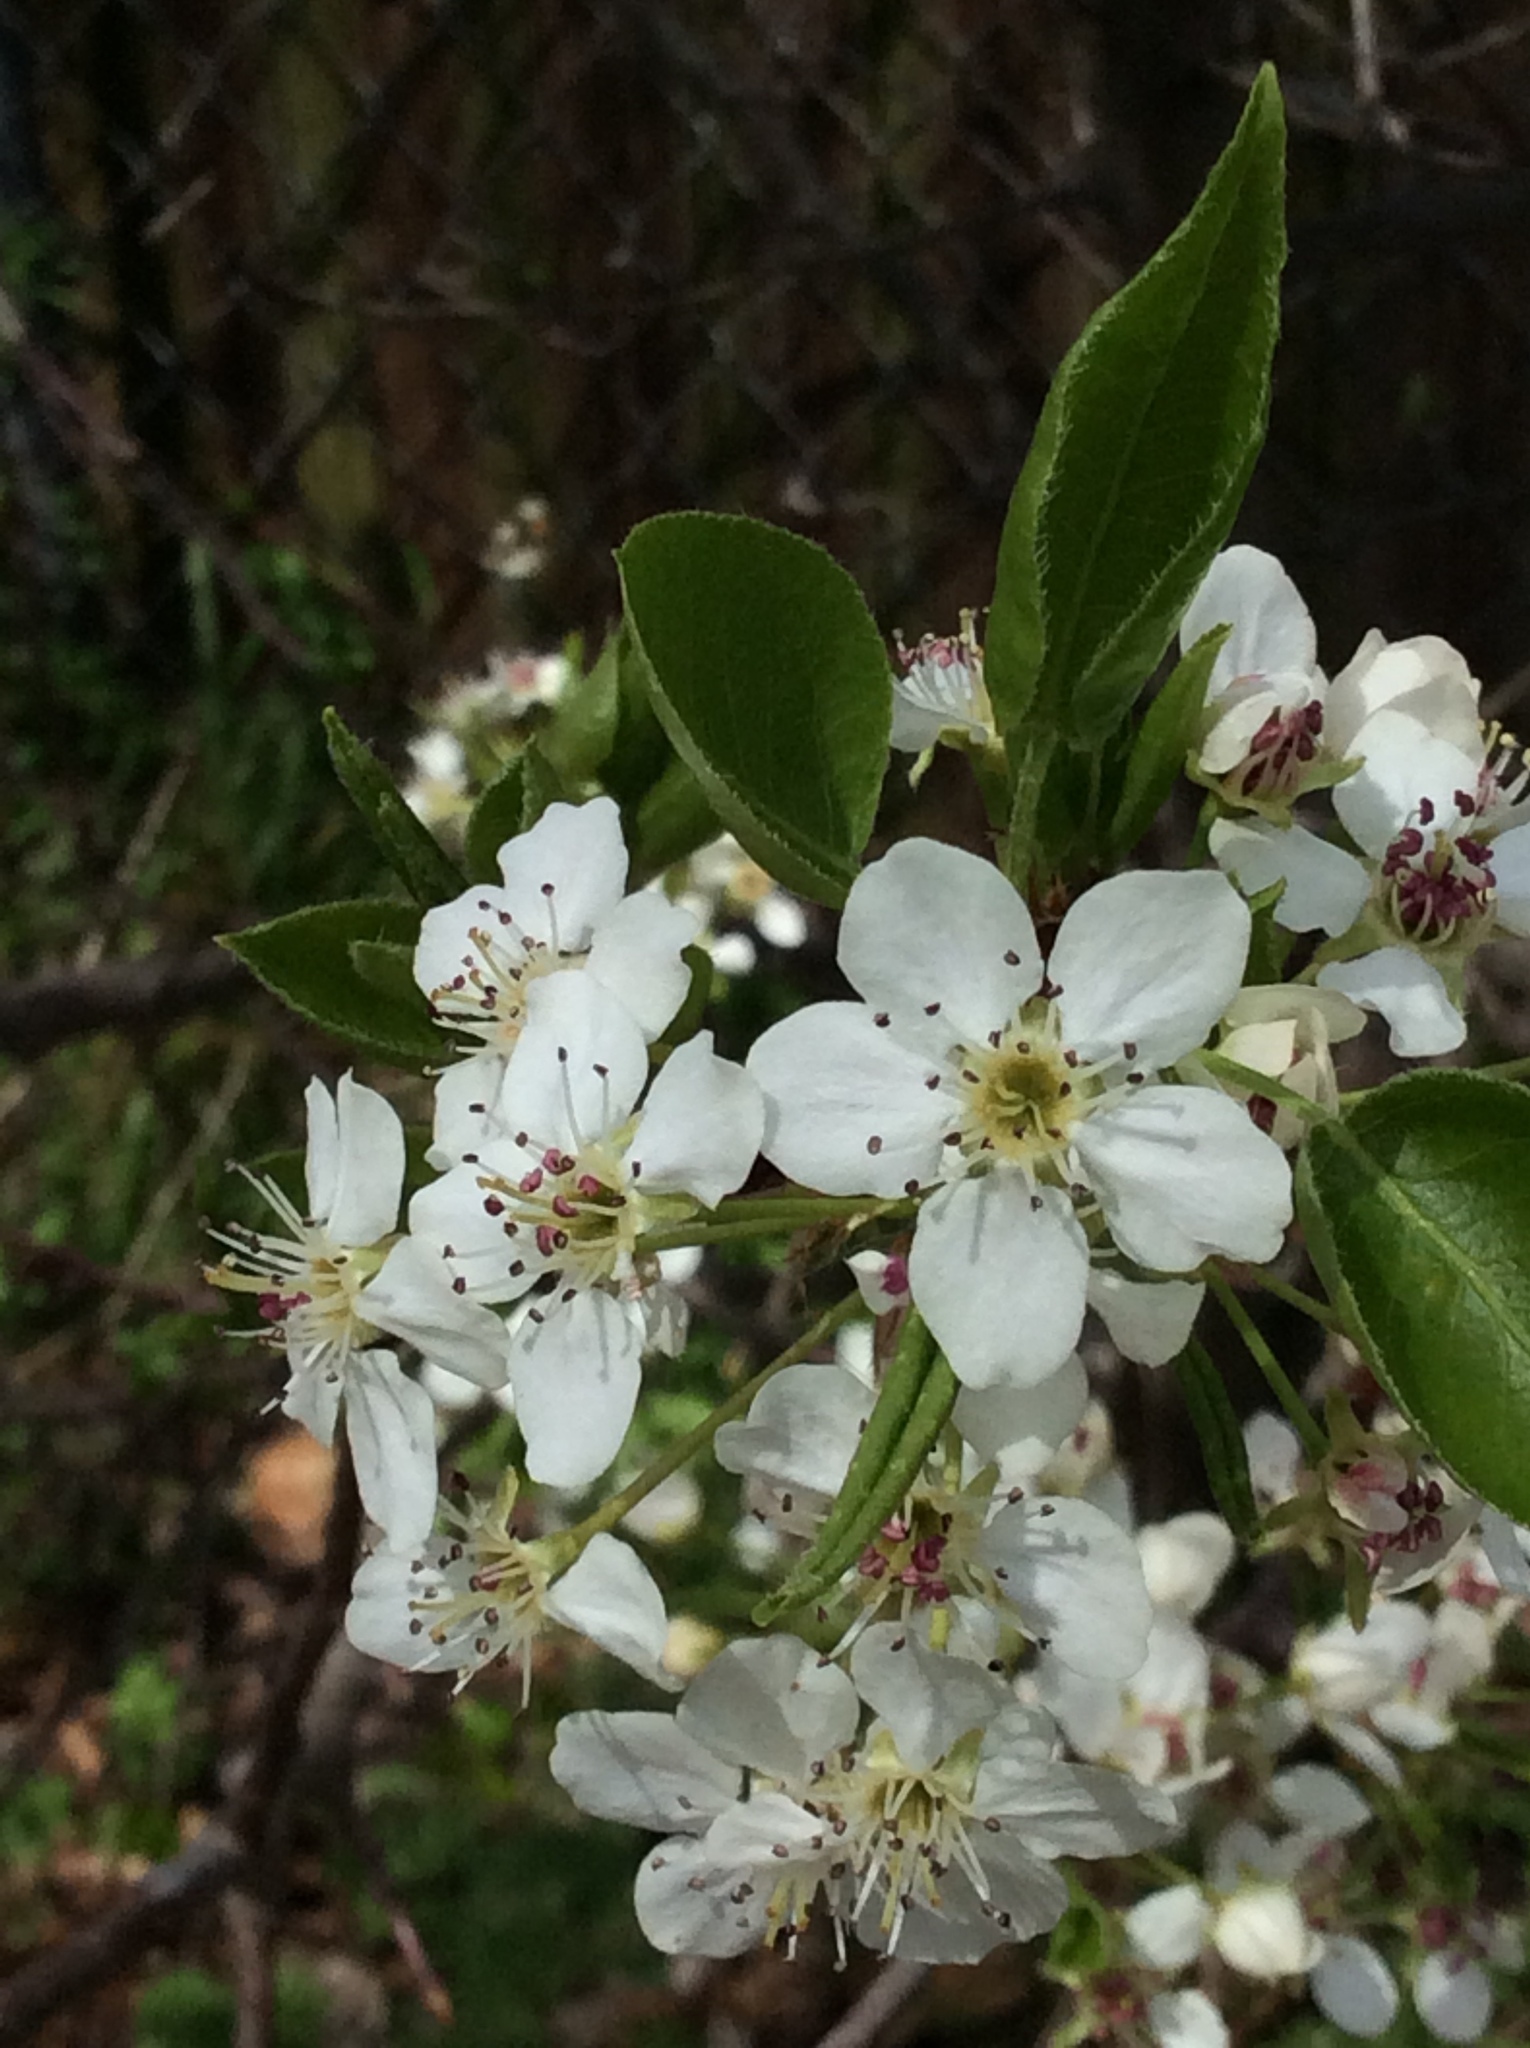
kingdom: Plantae
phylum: Tracheophyta
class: Magnoliopsida
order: Rosales
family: Rosaceae
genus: Pyrus
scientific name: Pyrus calleryana
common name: Callery pear
